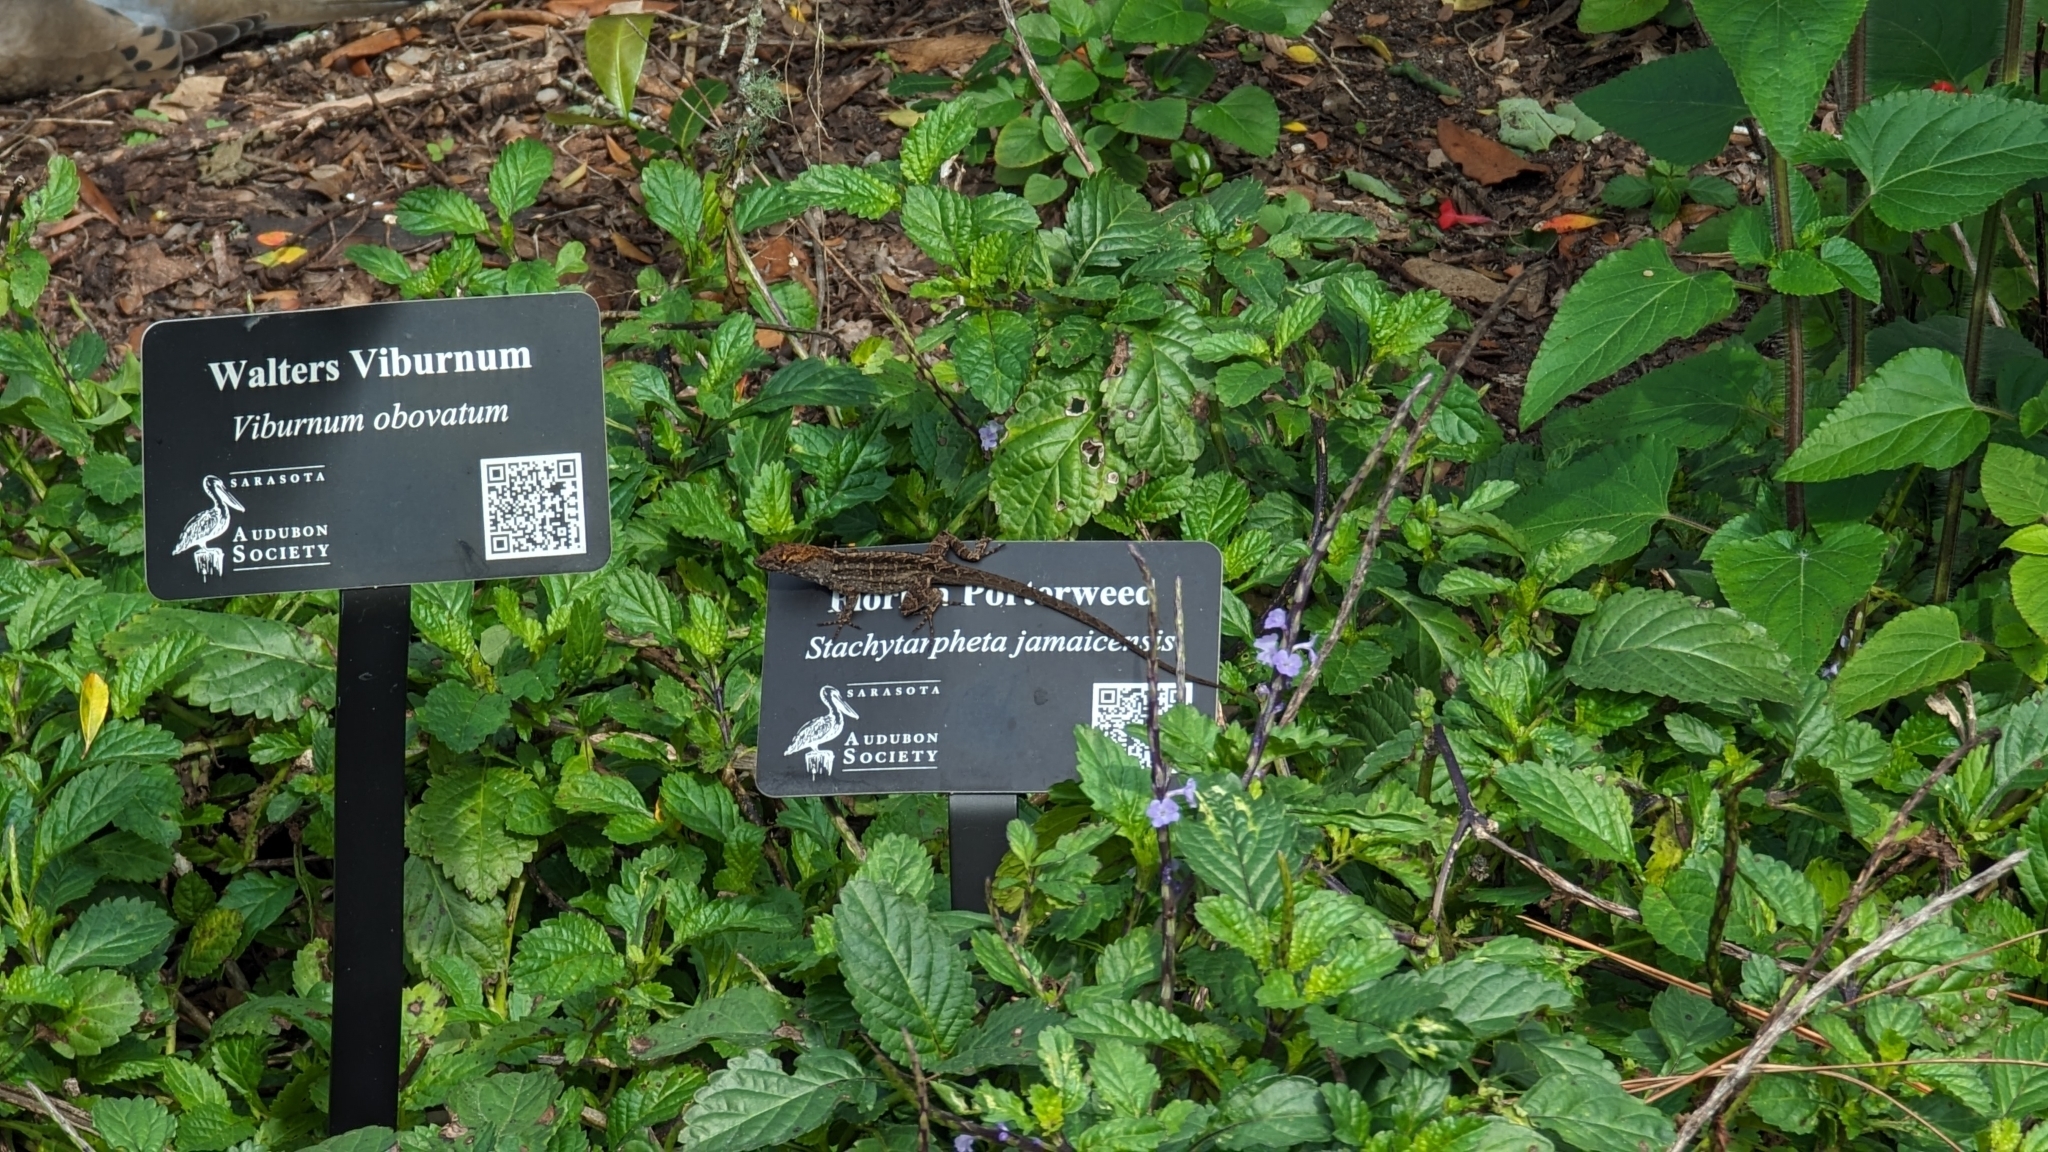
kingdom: Animalia
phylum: Chordata
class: Squamata
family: Dactyloidae
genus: Anolis
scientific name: Anolis sagrei
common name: Brown anole
